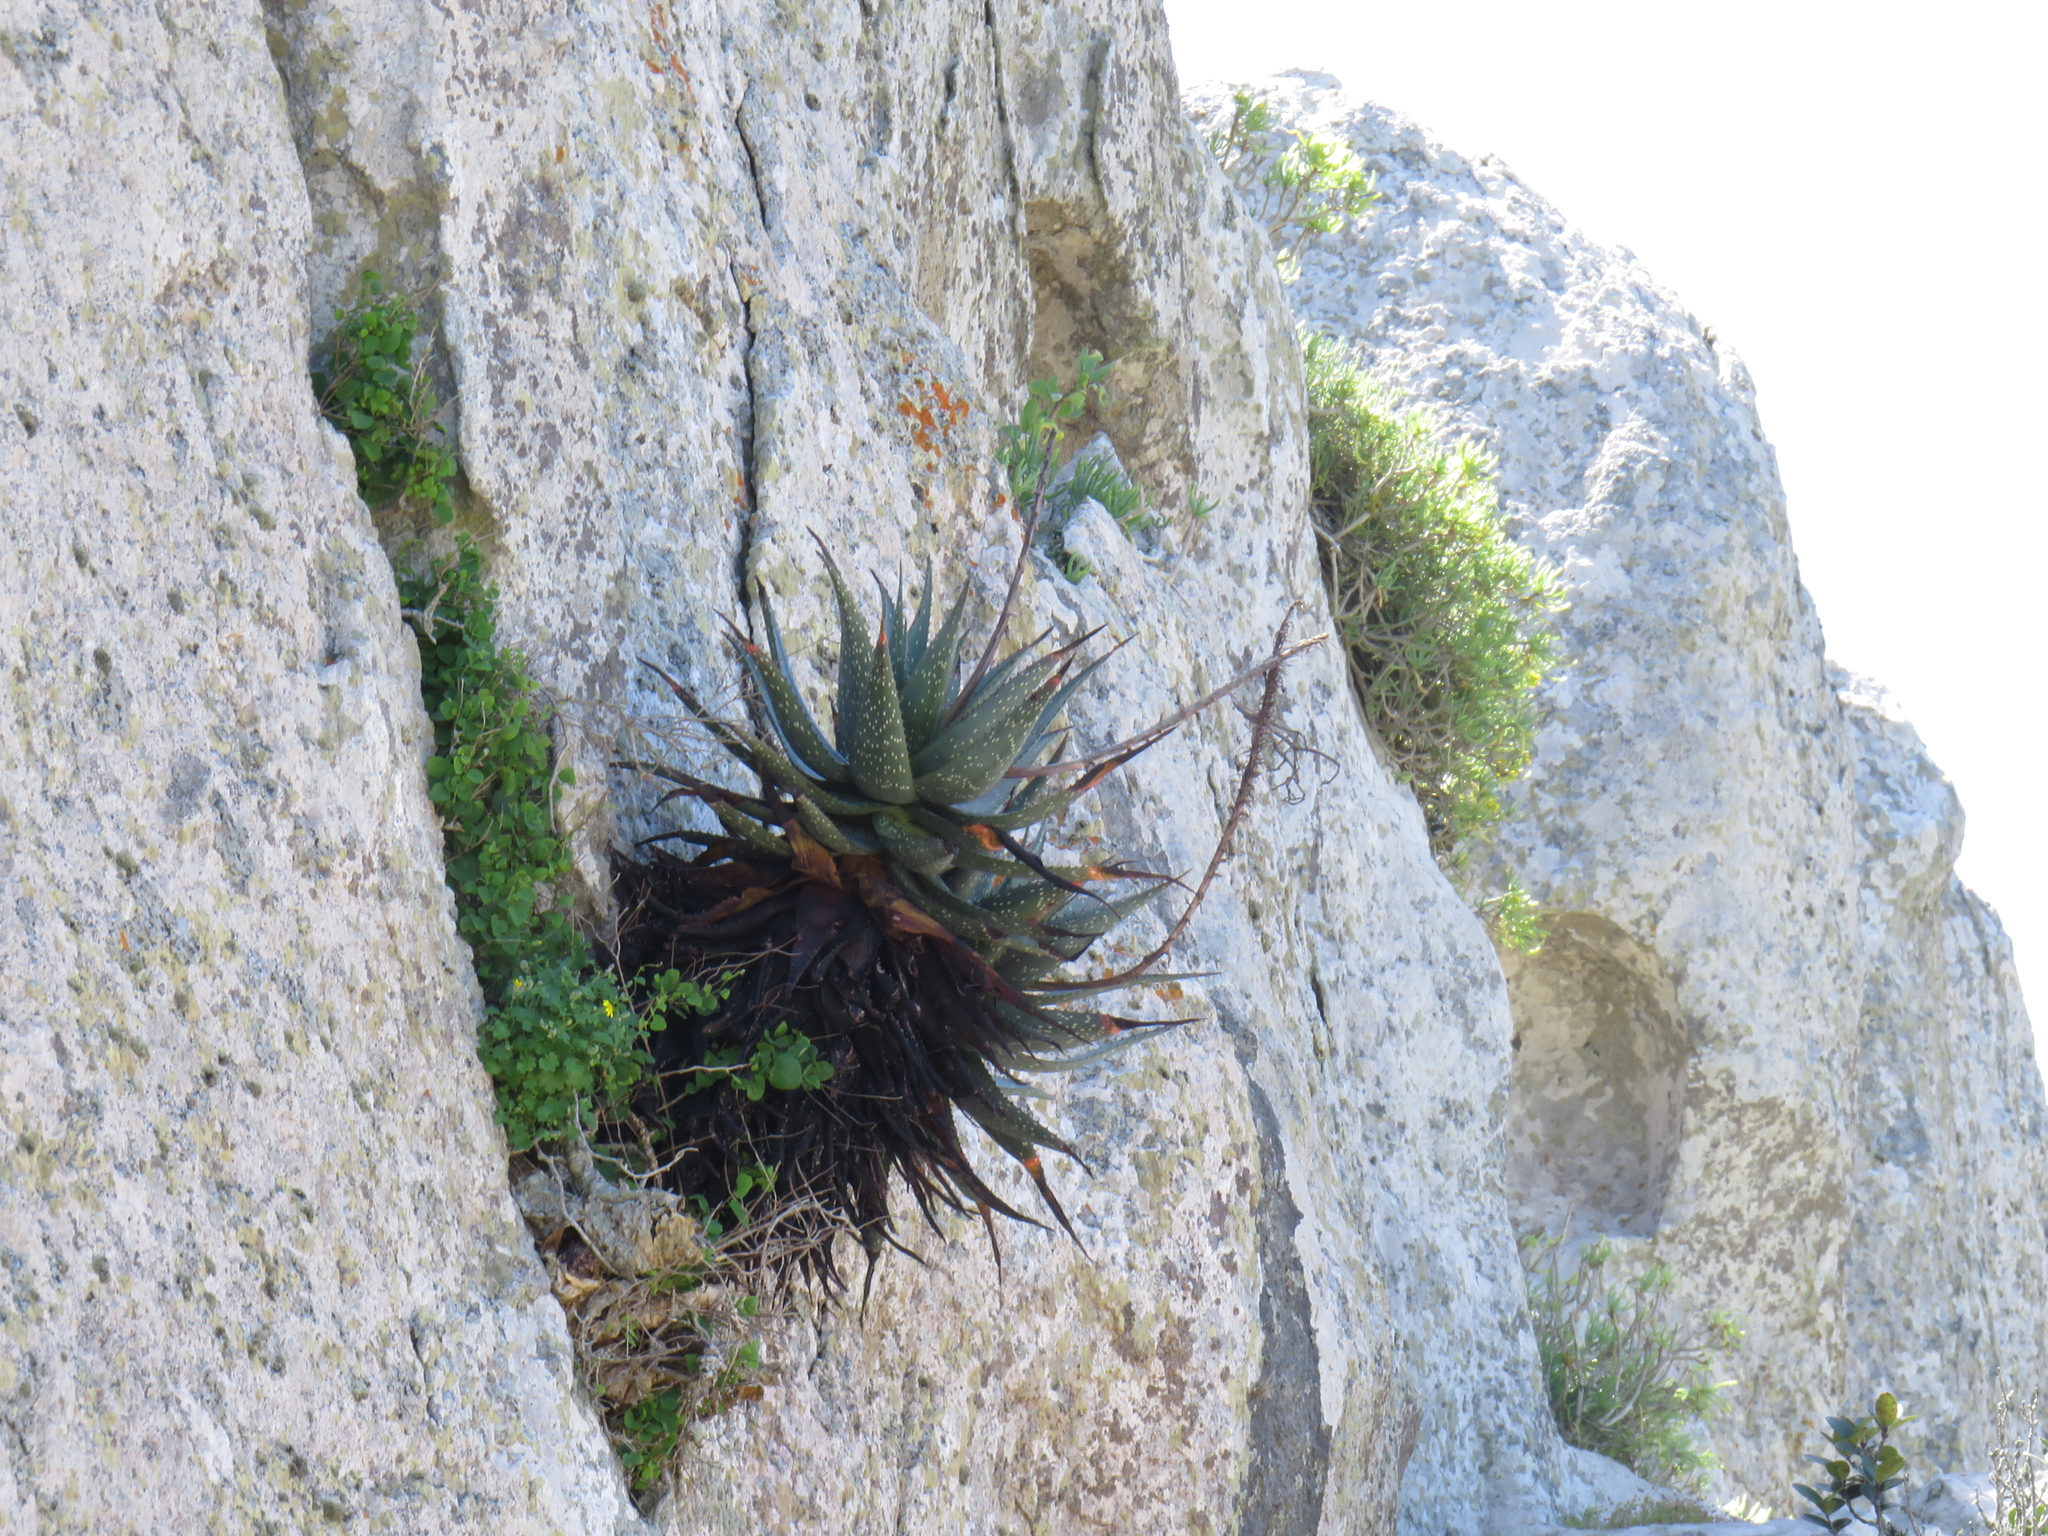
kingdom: Plantae
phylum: Tracheophyta
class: Liliopsida
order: Asparagales
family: Asphodelaceae
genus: Aloe
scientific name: Aloe microstigma
